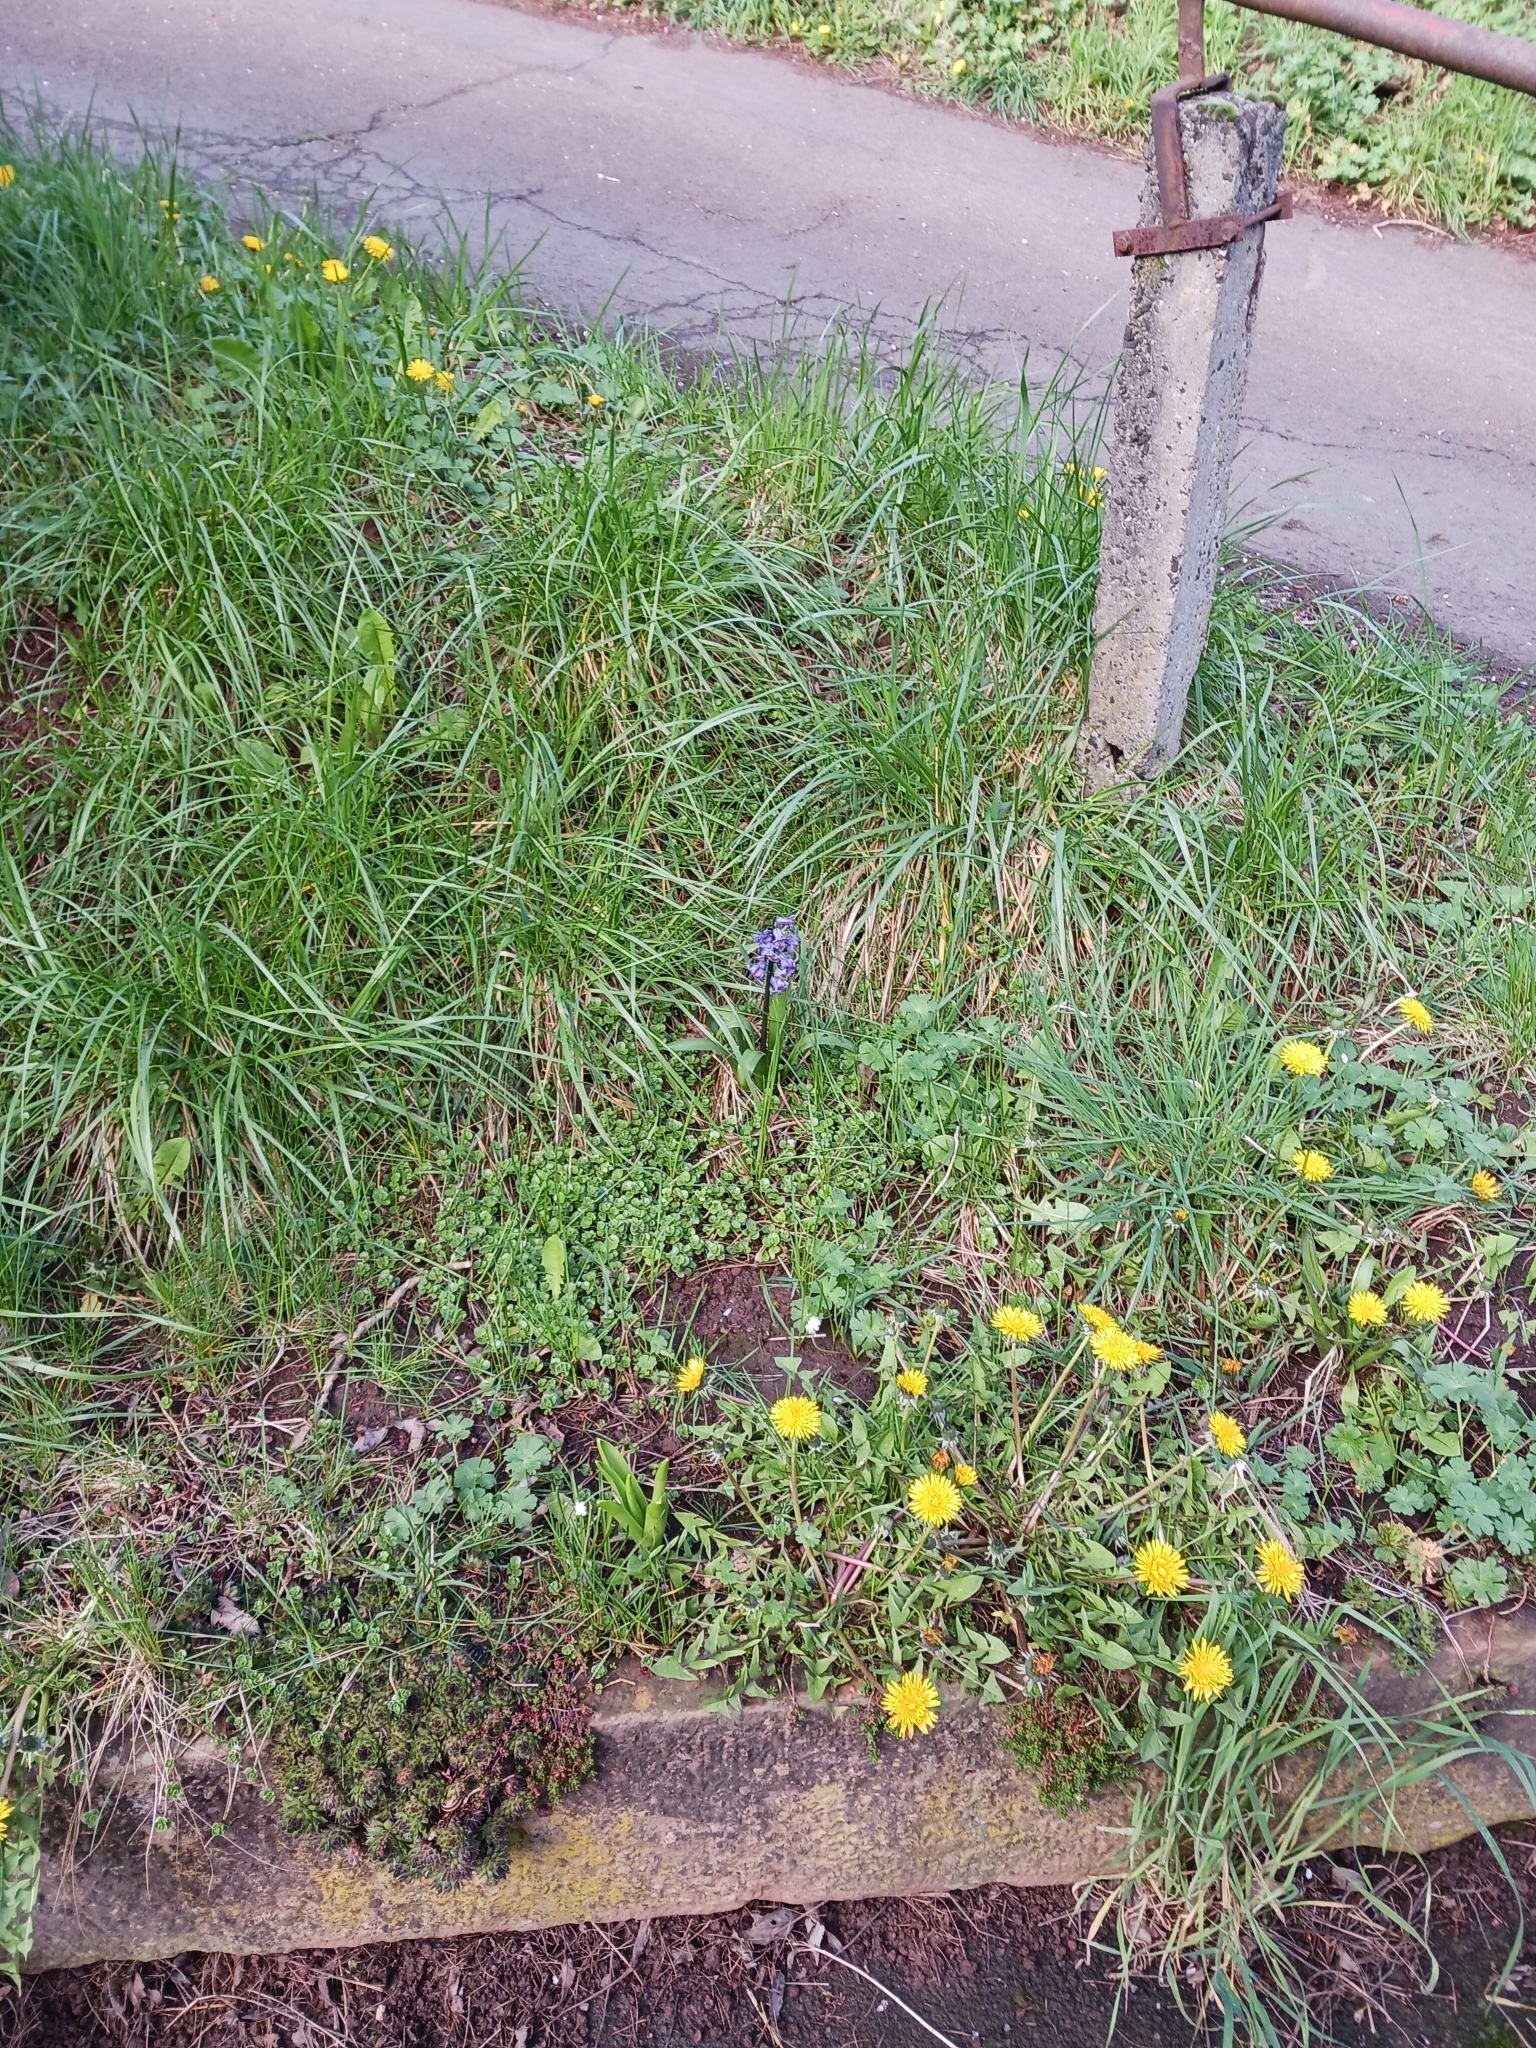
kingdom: Plantae
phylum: Tracheophyta
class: Liliopsida
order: Asparagales
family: Asparagaceae
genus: Hyacinthus
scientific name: Hyacinthus orientalis
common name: Hyacinth
